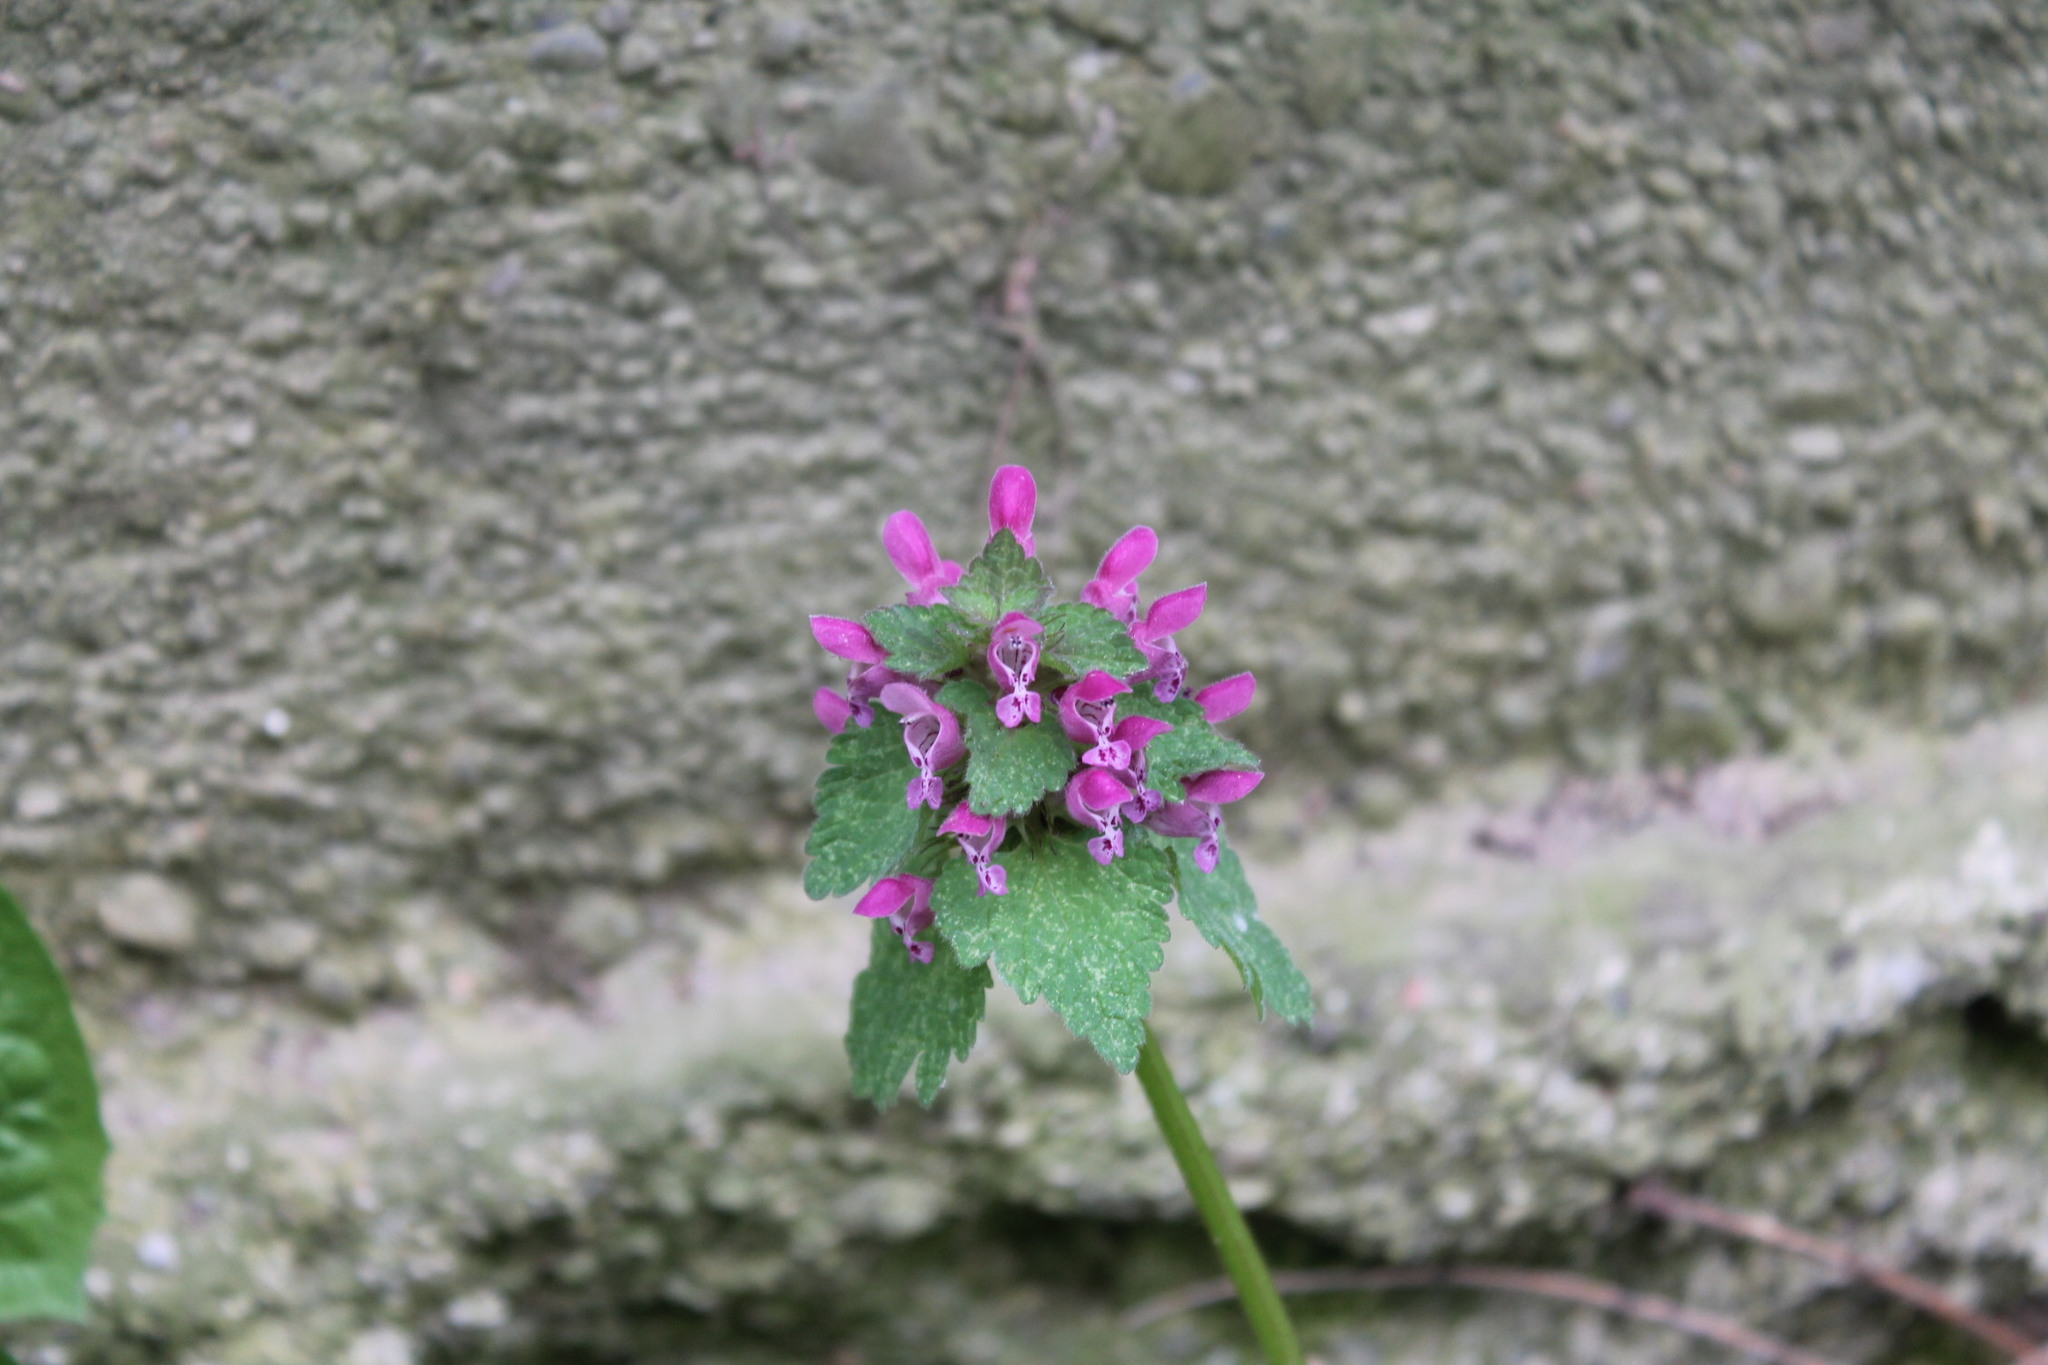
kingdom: Plantae
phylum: Tracheophyta
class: Magnoliopsida
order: Lamiales
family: Lamiaceae
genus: Lamium
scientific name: Lamium purpureum
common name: Red dead-nettle
